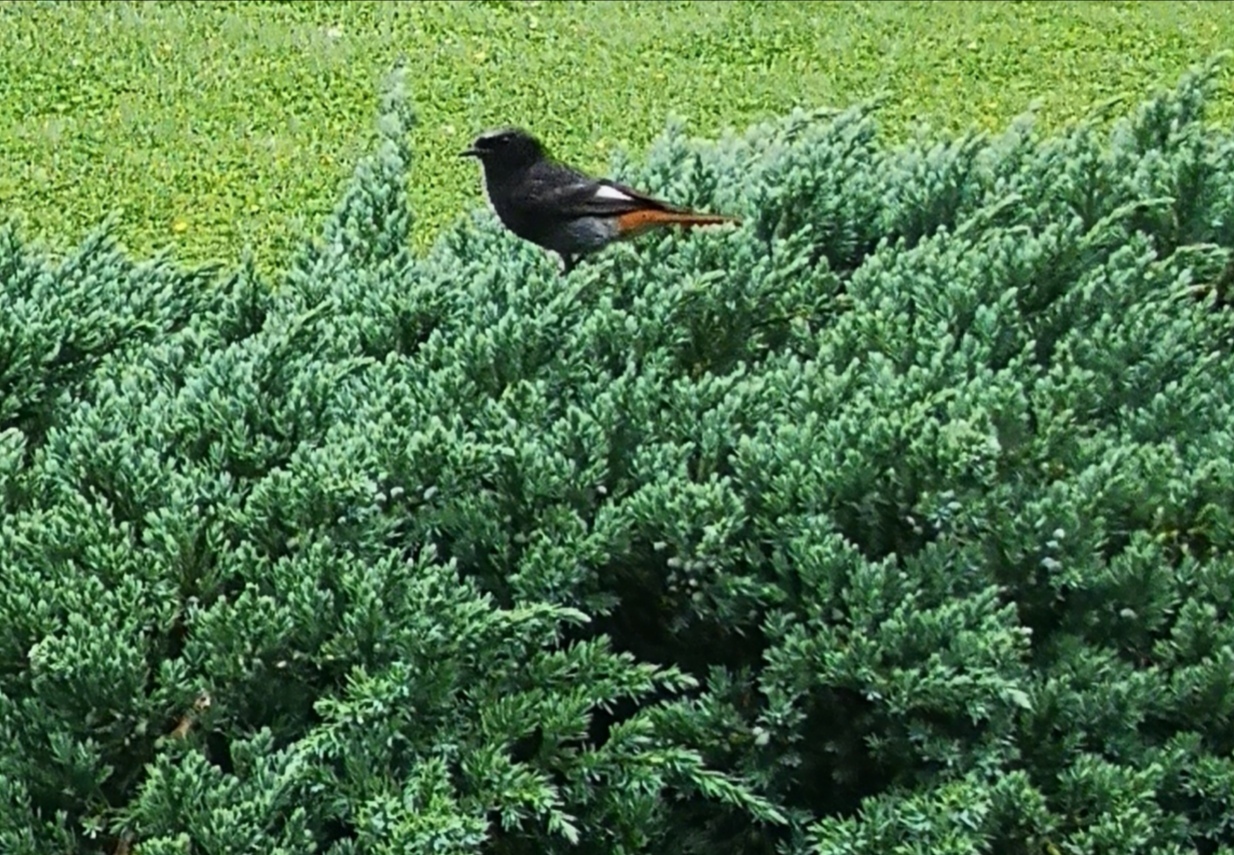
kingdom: Animalia
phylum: Chordata
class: Aves
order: Passeriformes
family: Muscicapidae
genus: Phoenicurus
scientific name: Phoenicurus ochruros
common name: Black redstart
